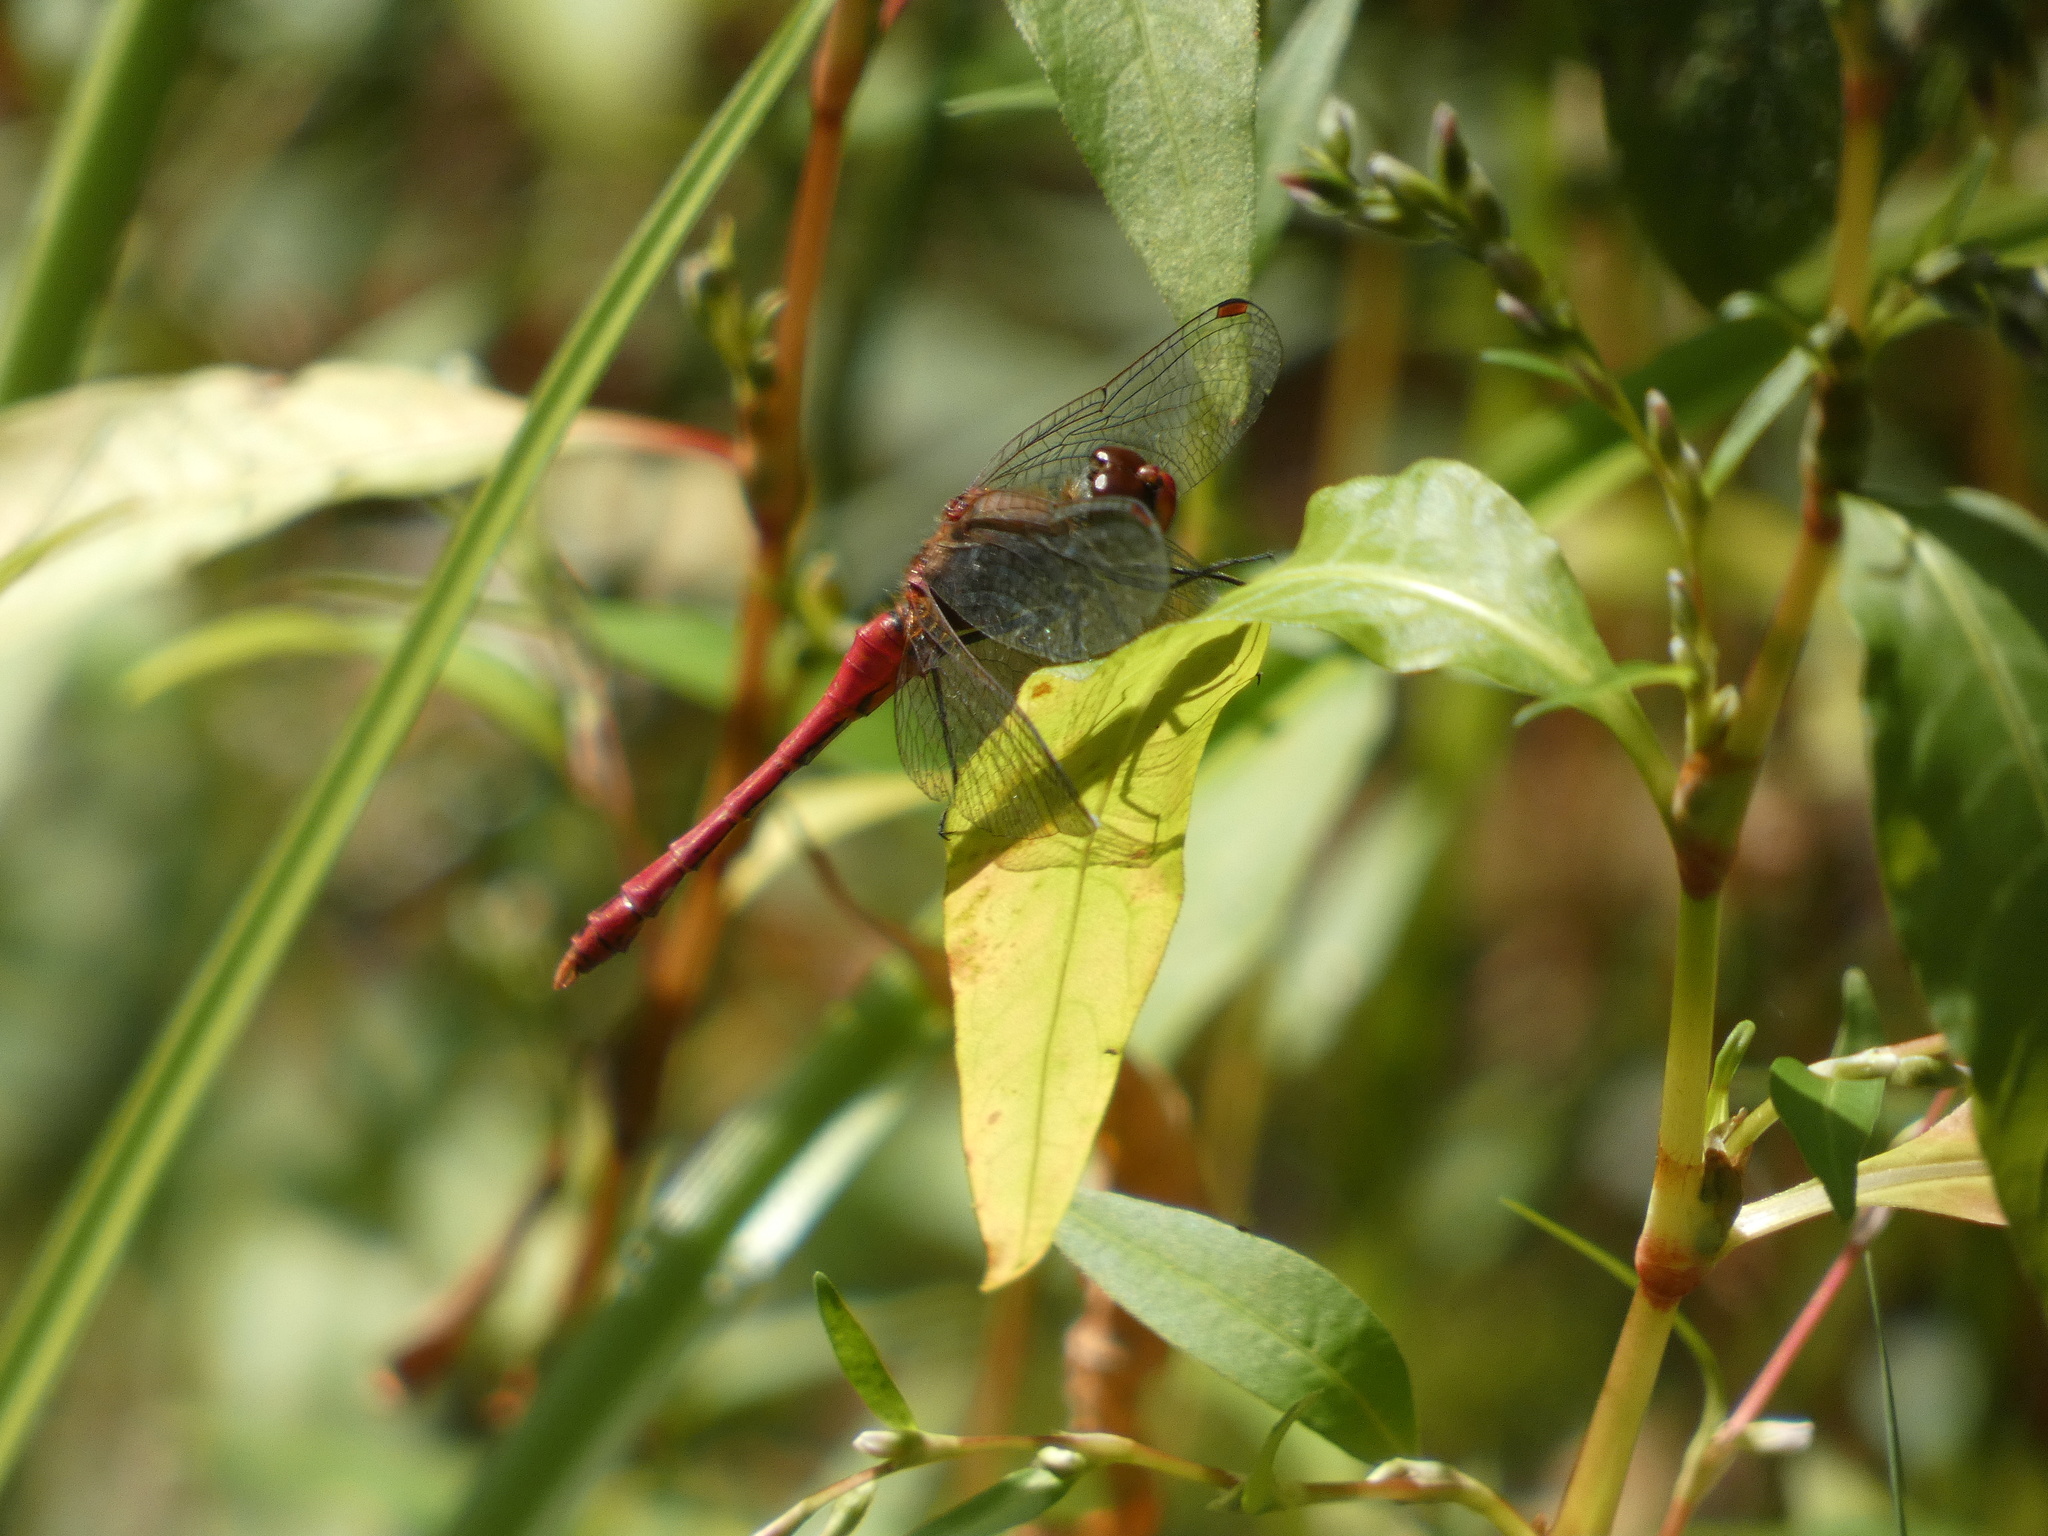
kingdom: Animalia
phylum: Arthropoda
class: Insecta
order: Odonata
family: Libellulidae
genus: Sympetrum
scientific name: Sympetrum sanguineum
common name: Ruddy darter
